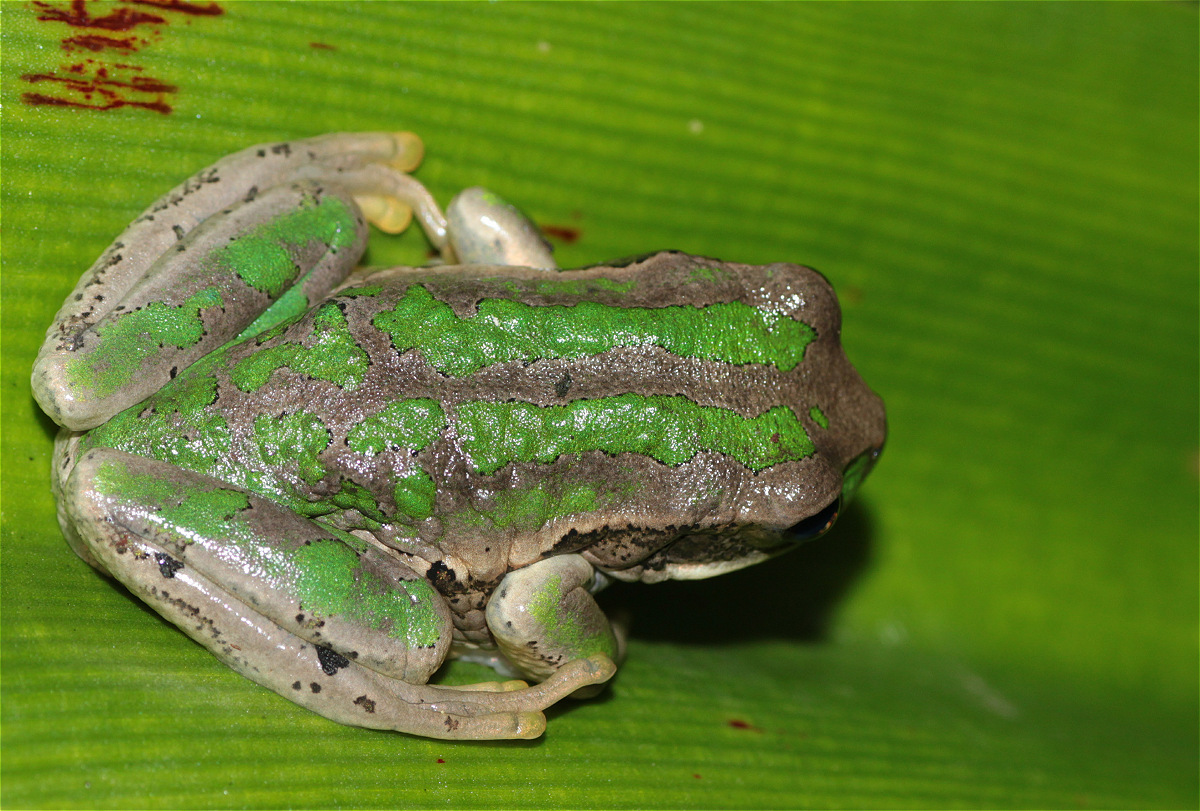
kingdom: Animalia
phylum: Chordata
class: Amphibia
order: Anura
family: Hemiphractidae
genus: Gastrotheca
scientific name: Gastrotheca cuencana
